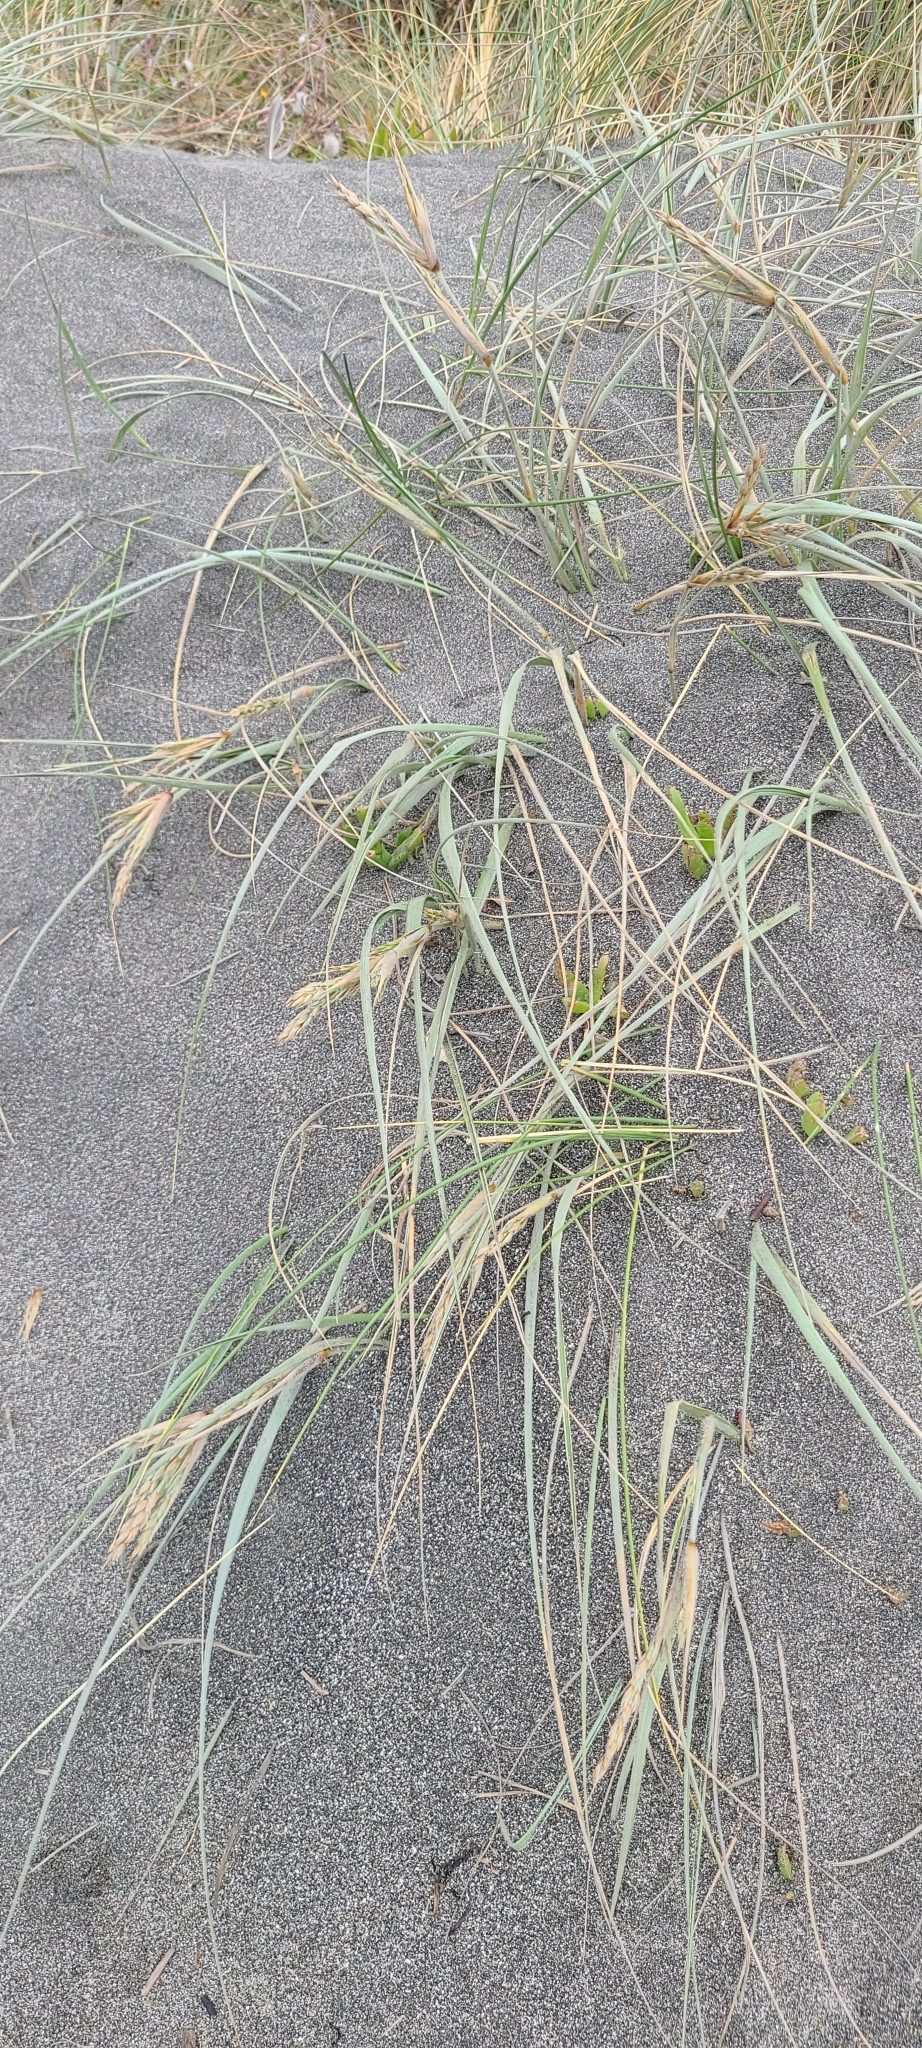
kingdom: Plantae
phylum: Tracheophyta
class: Liliopsida
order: Poales
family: Poaceae
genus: Spinifex
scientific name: Spinifex sericeus
